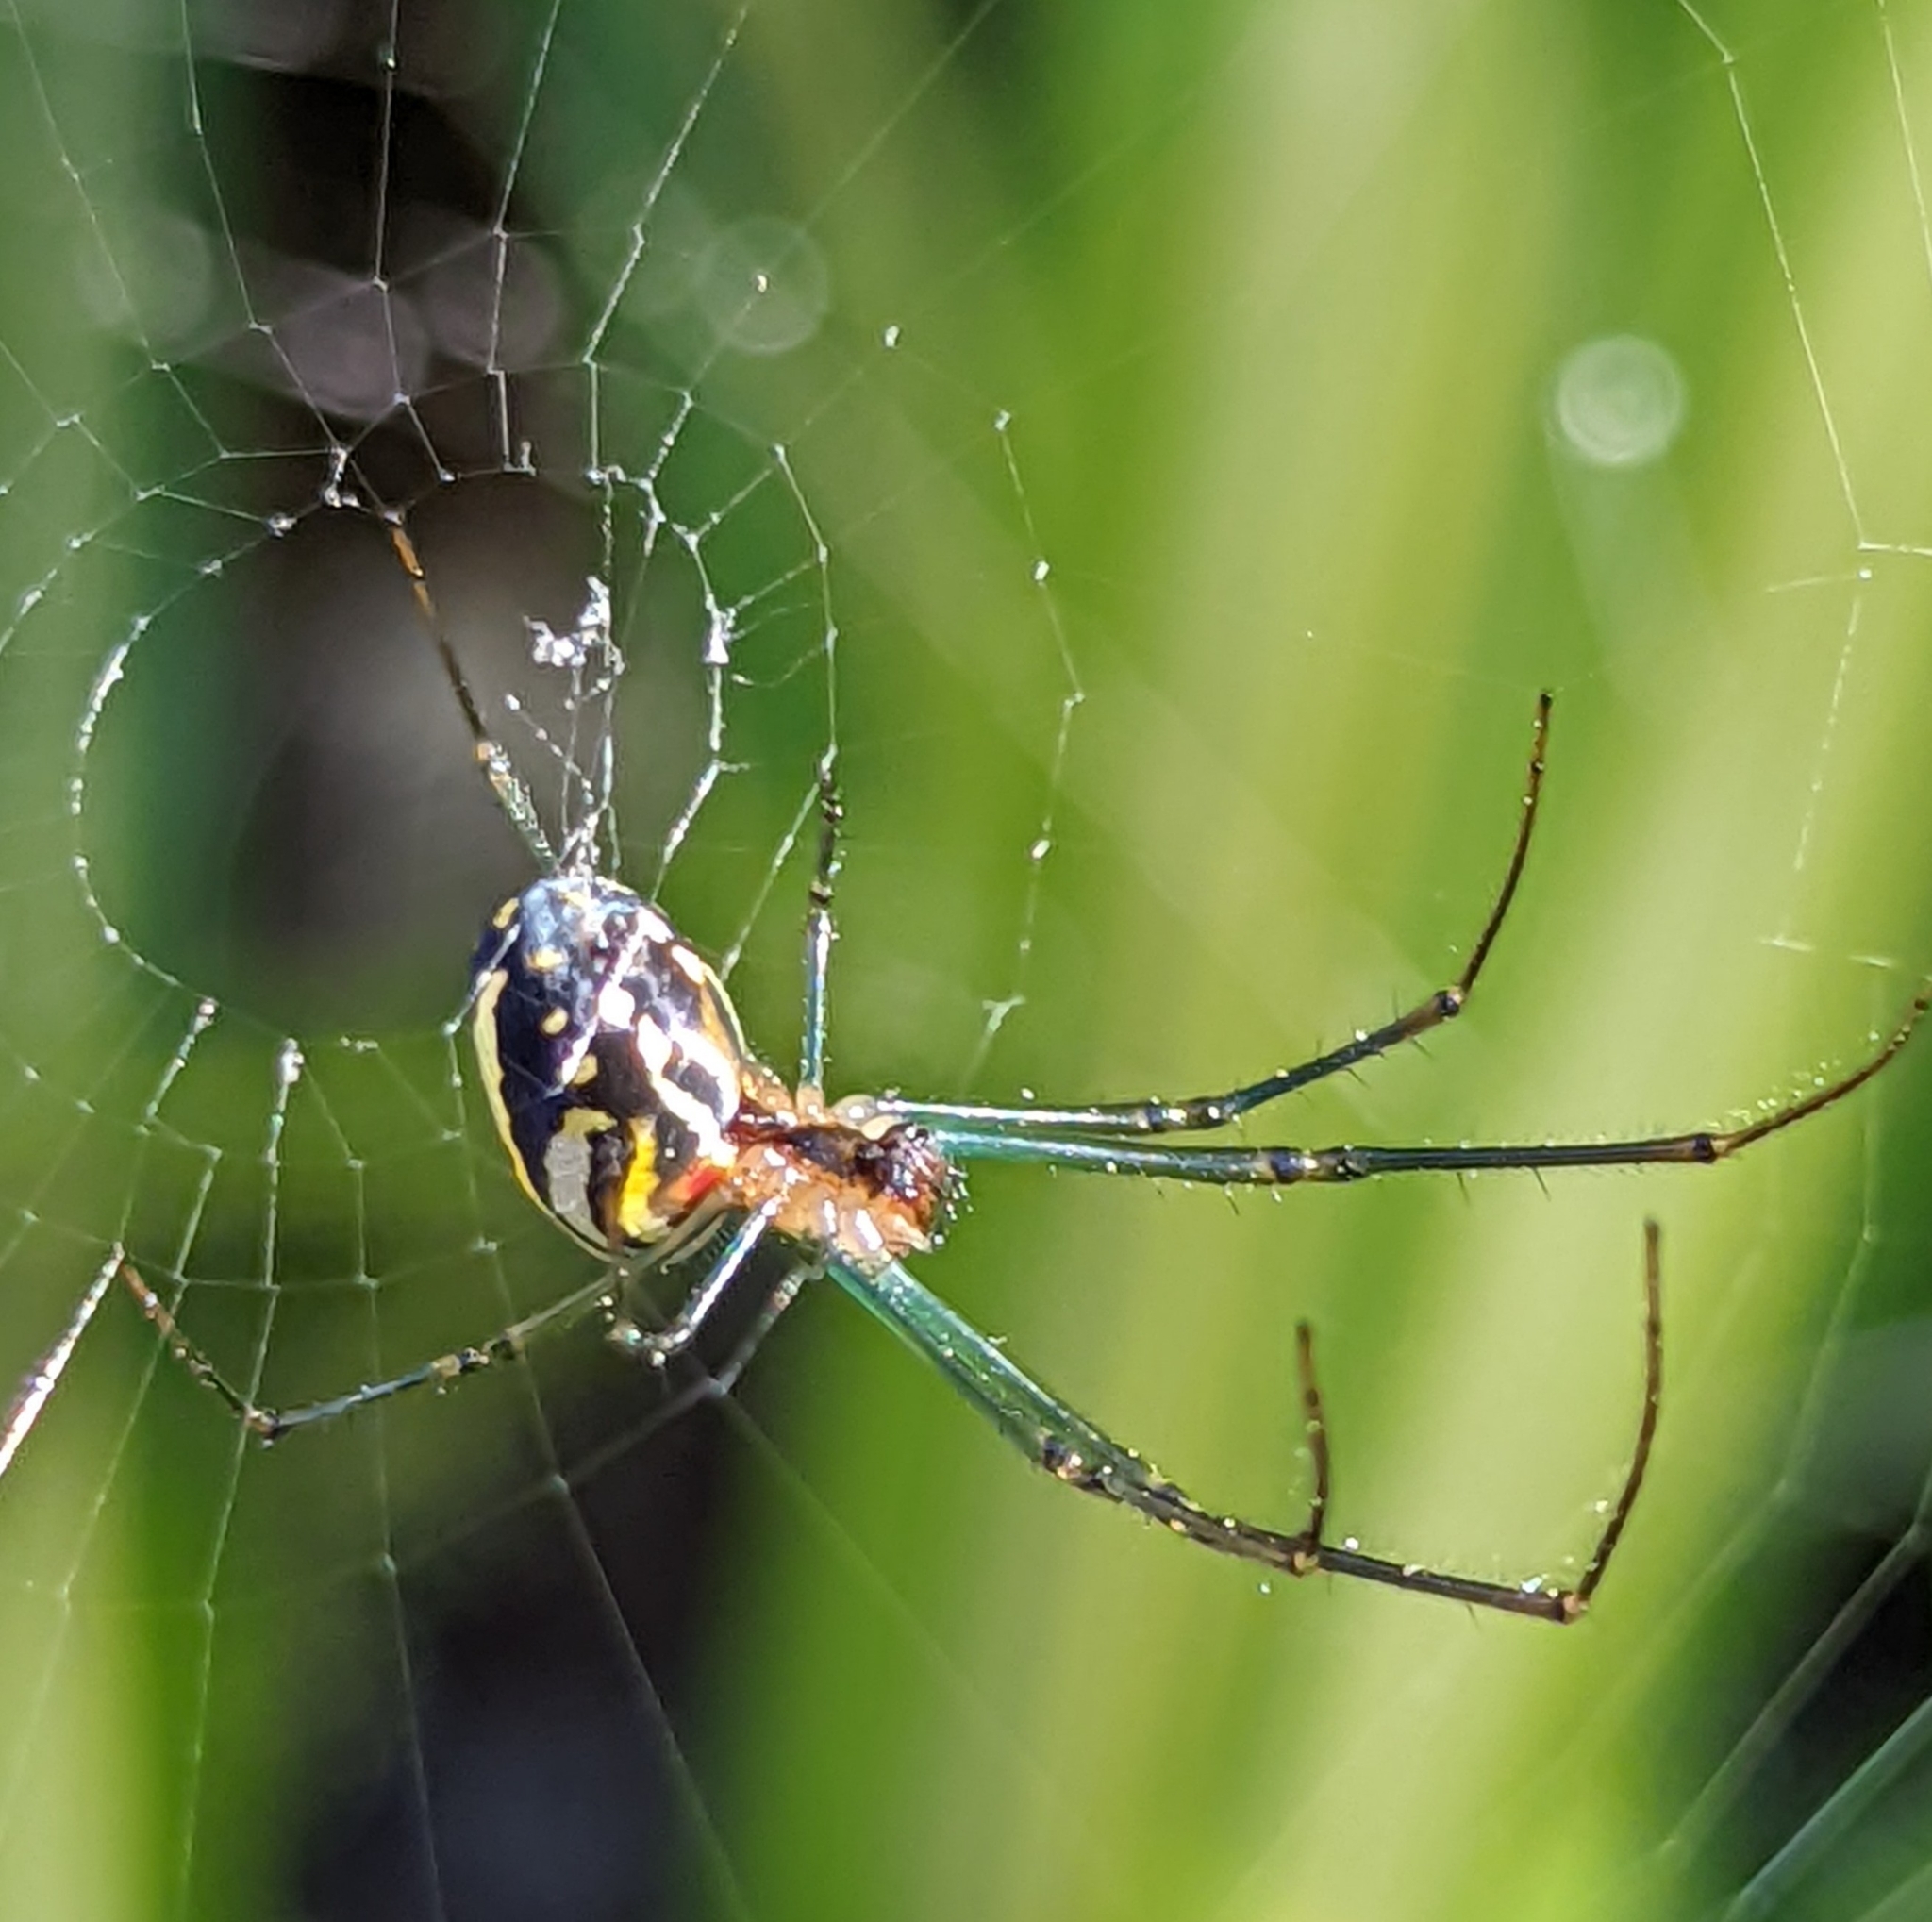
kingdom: Animalia
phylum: Arthropoda
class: Arachnida
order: Araneae
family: Tetragnathidae
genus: Leucauge
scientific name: Leucauge argyra
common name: Longjawed orb weavers
